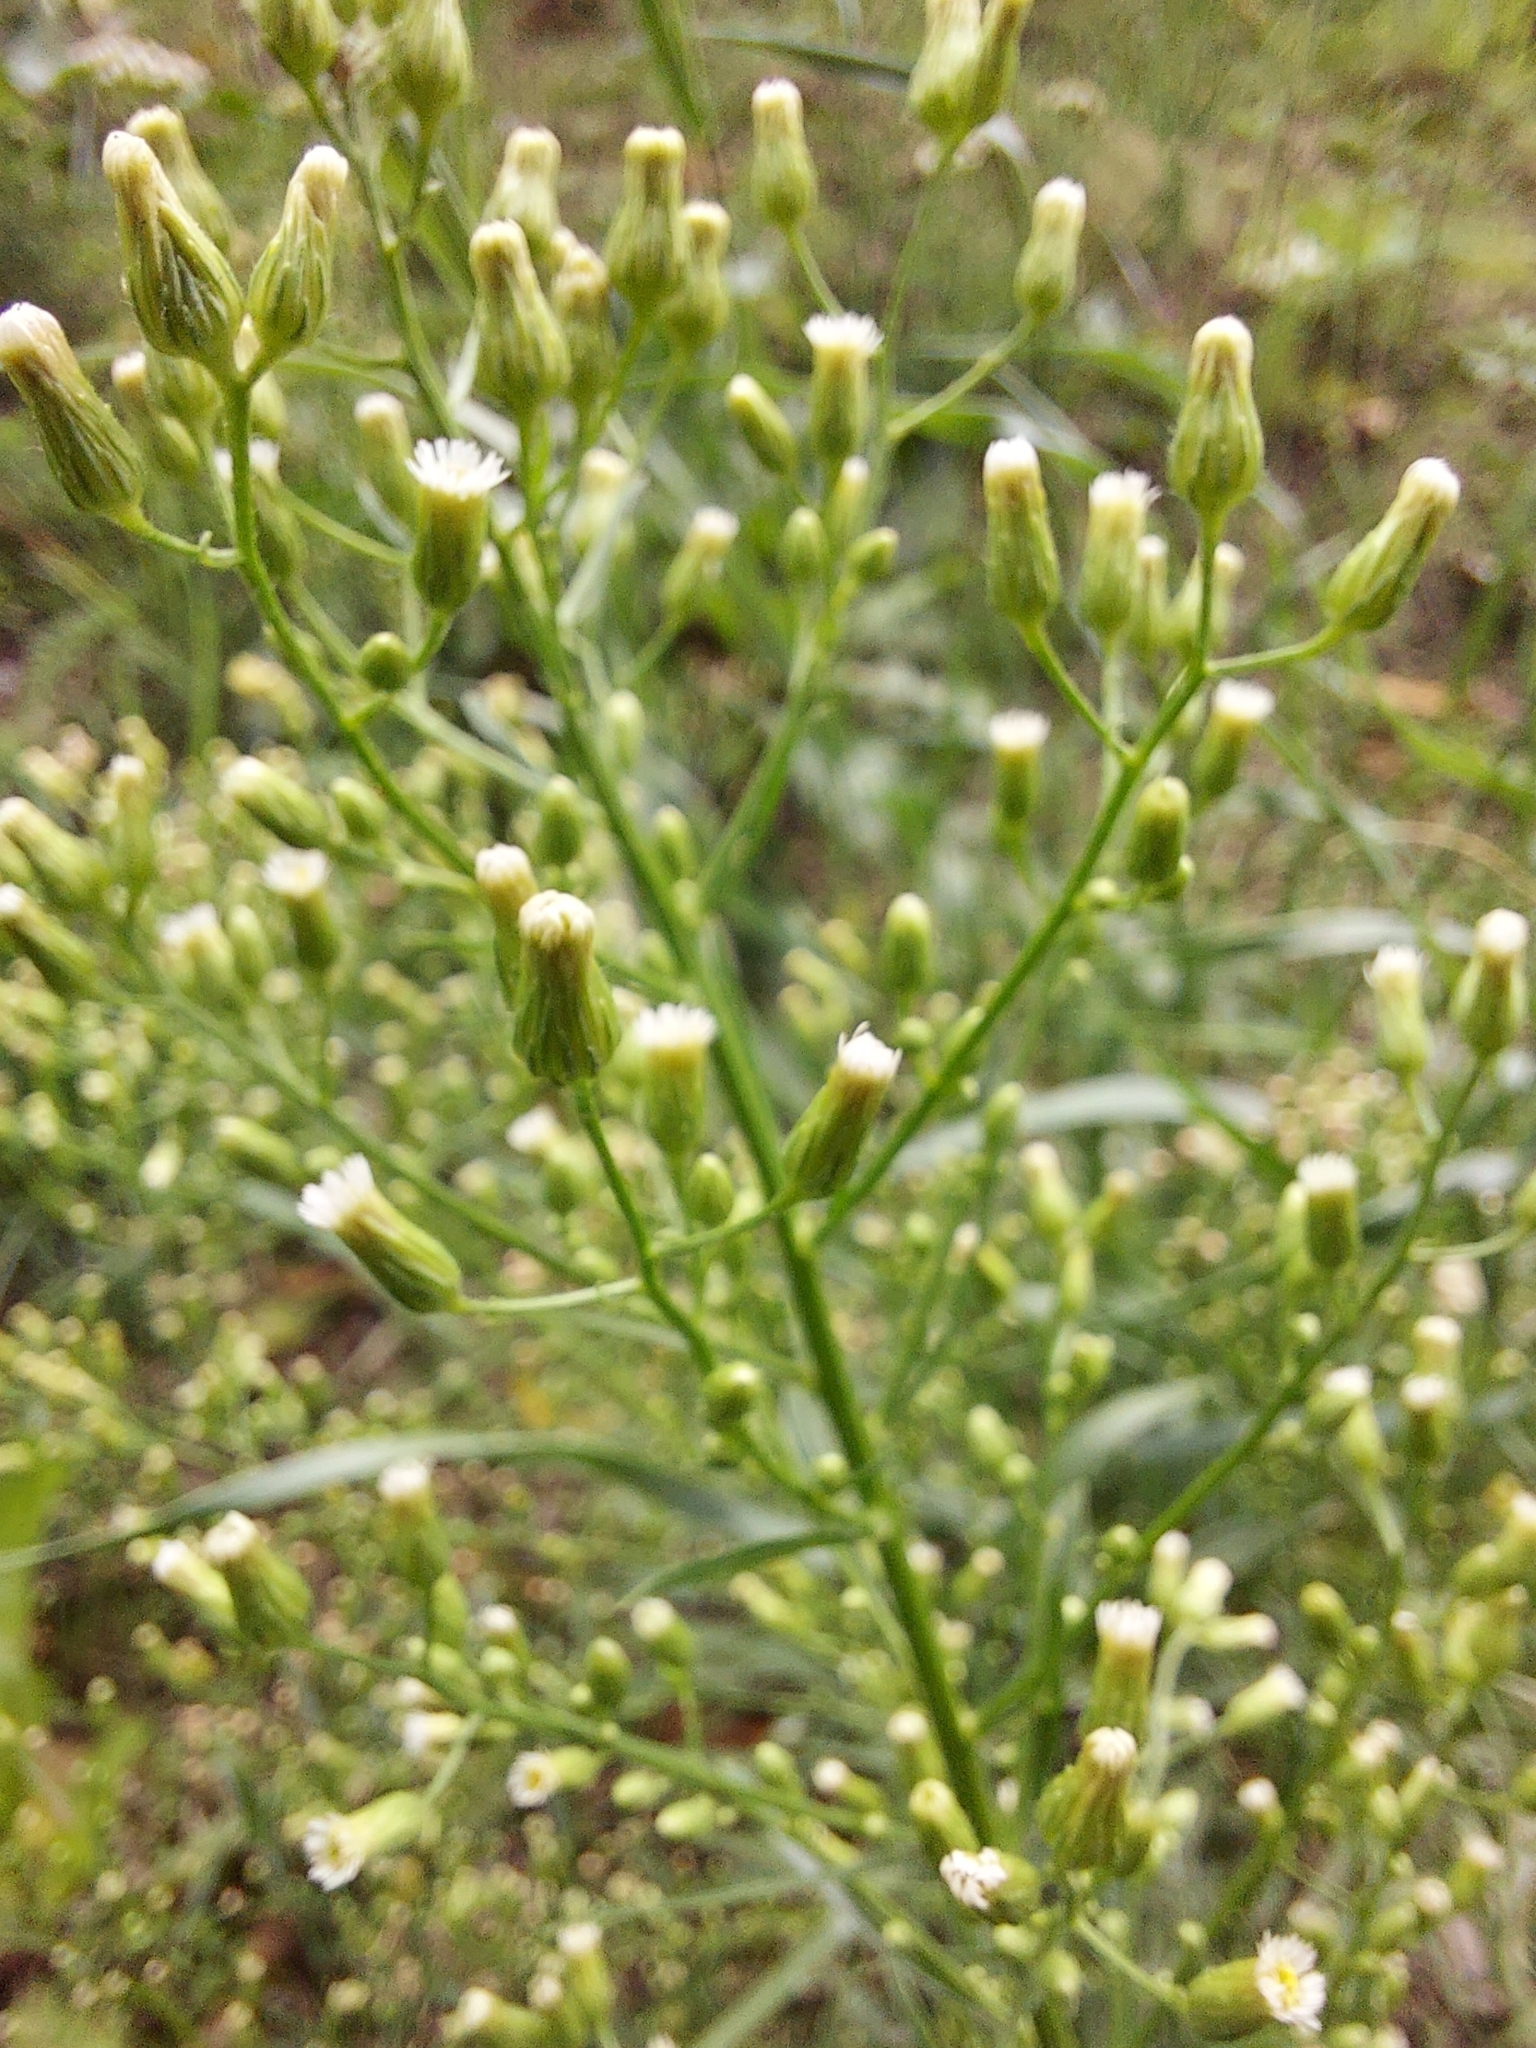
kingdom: Plantae
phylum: Tracheophyta
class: Magnoliopsida
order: Asterales
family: Asteraceae
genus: Erigeron
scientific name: Erigeron canadensis
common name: Canadian fleabane
